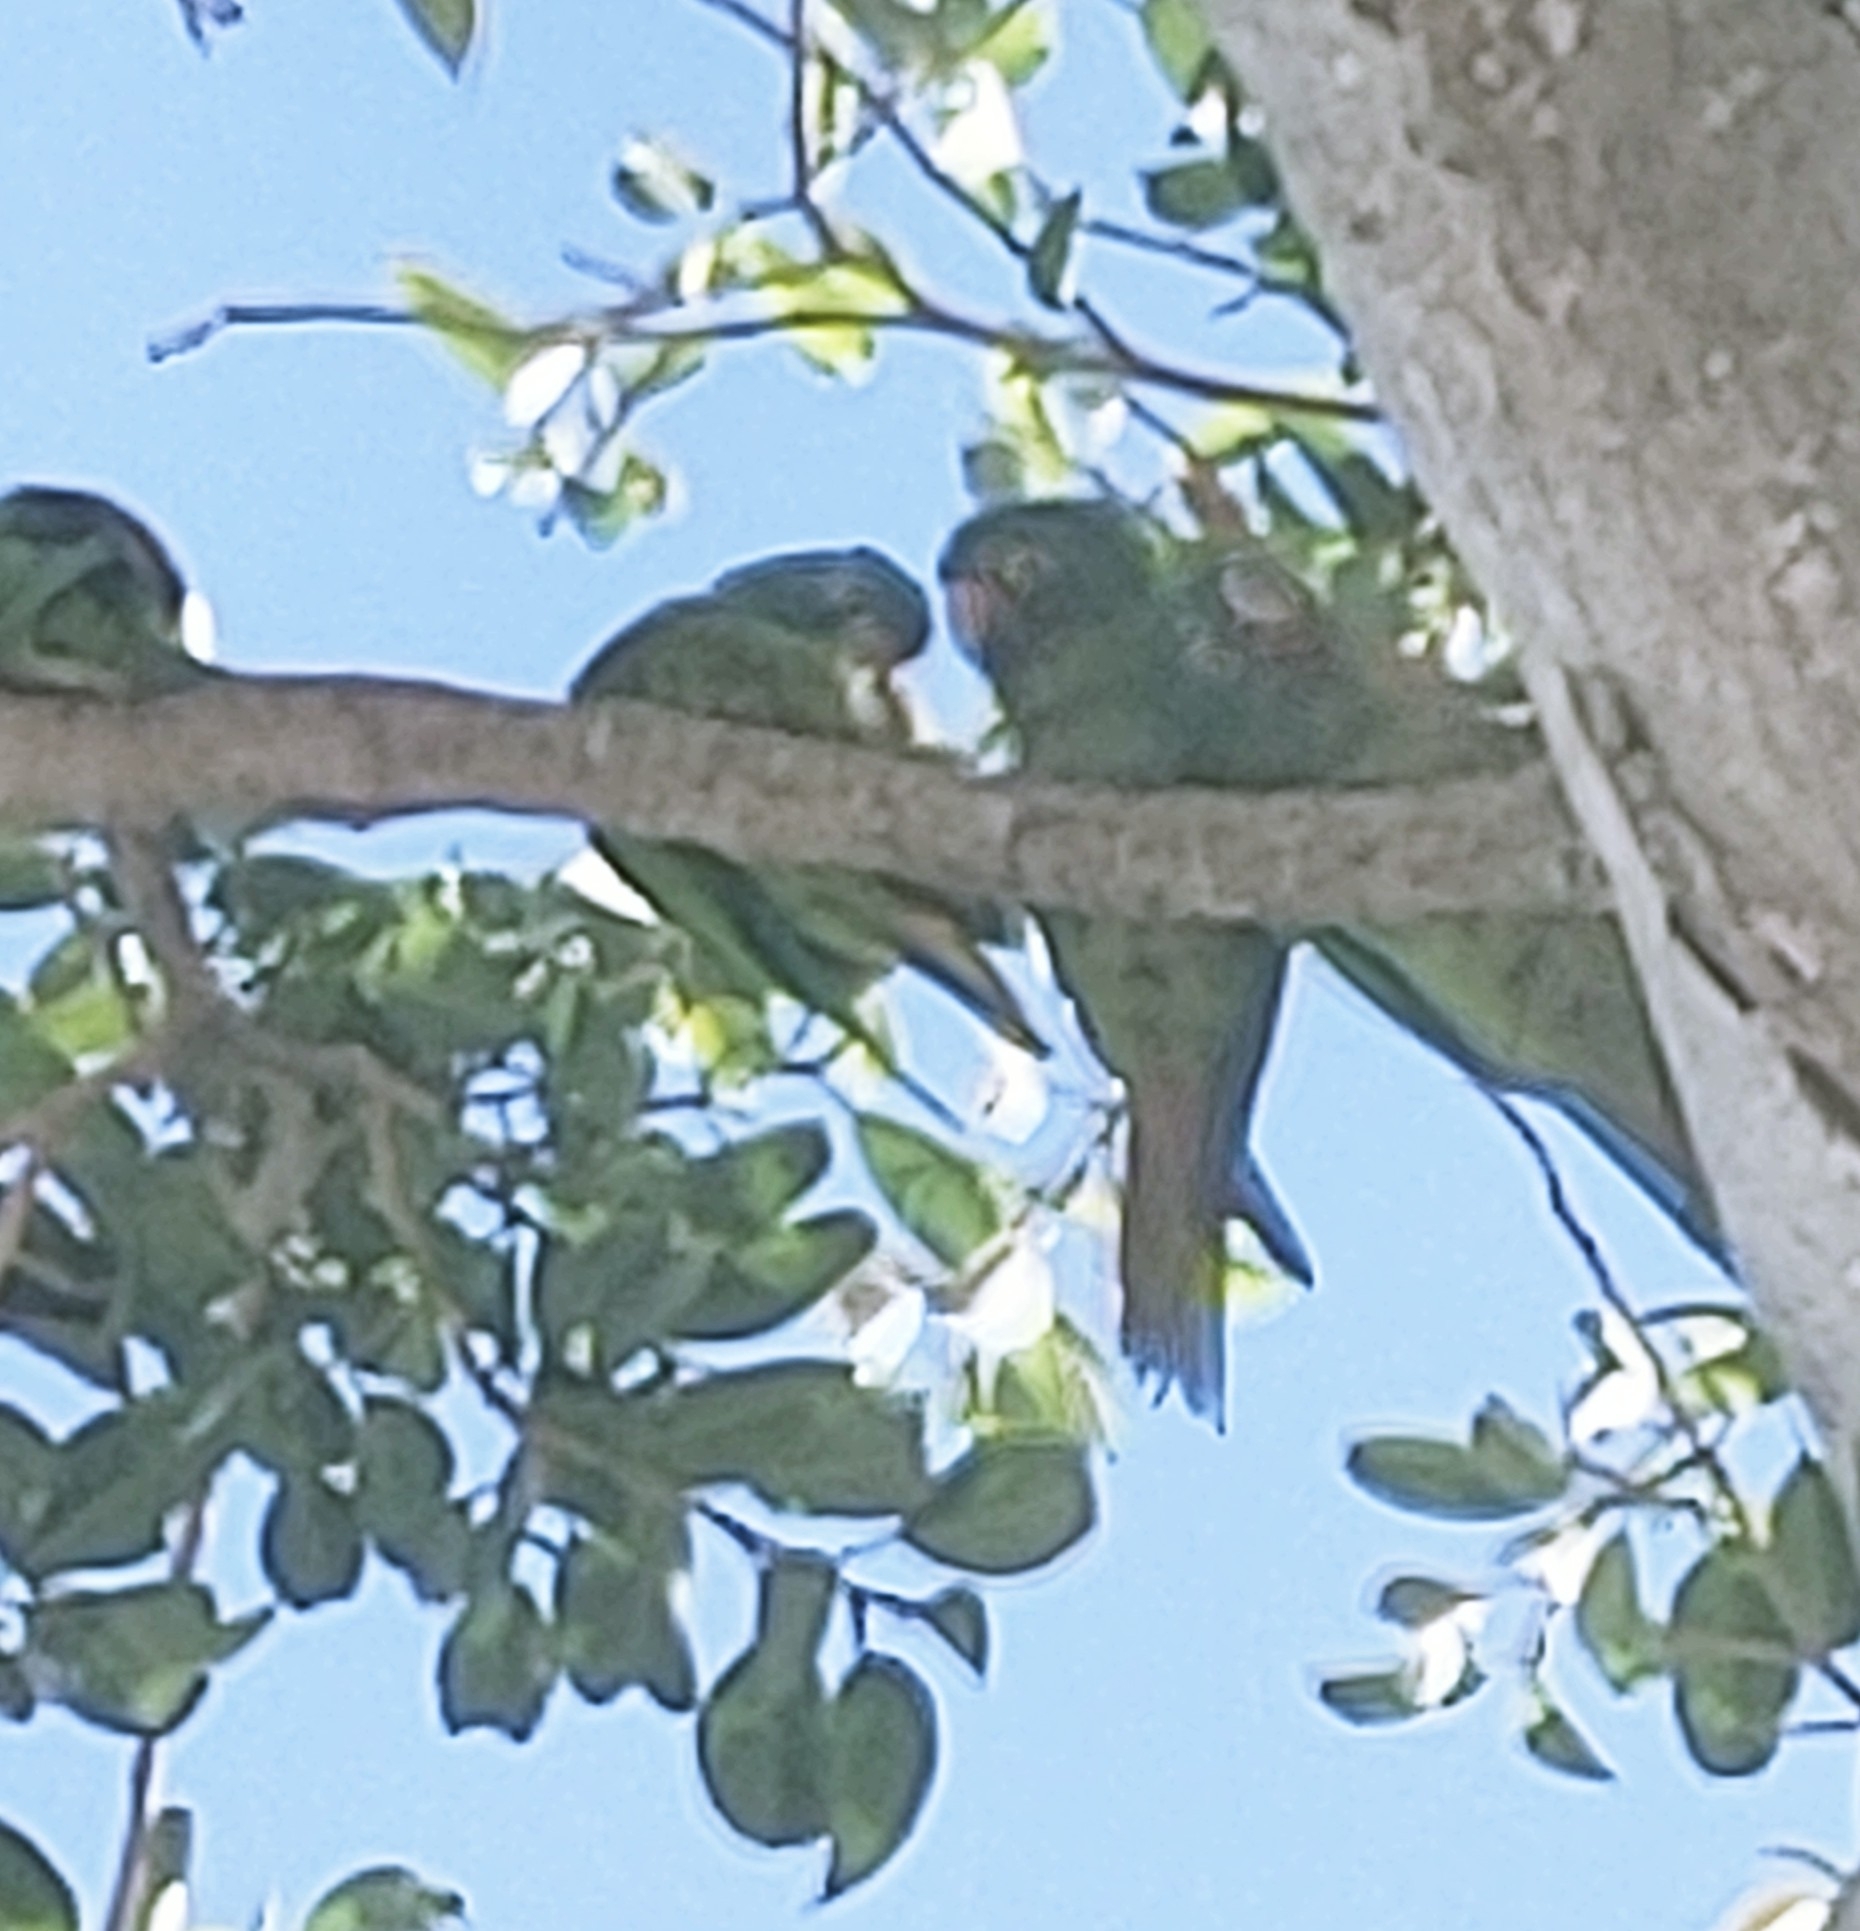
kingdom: Animalia
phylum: Chordata
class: Aves
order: Psittaciformes
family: Psittacidae
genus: Aratinga
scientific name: Aratinga leucophthalma
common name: White-eyed parakeet
